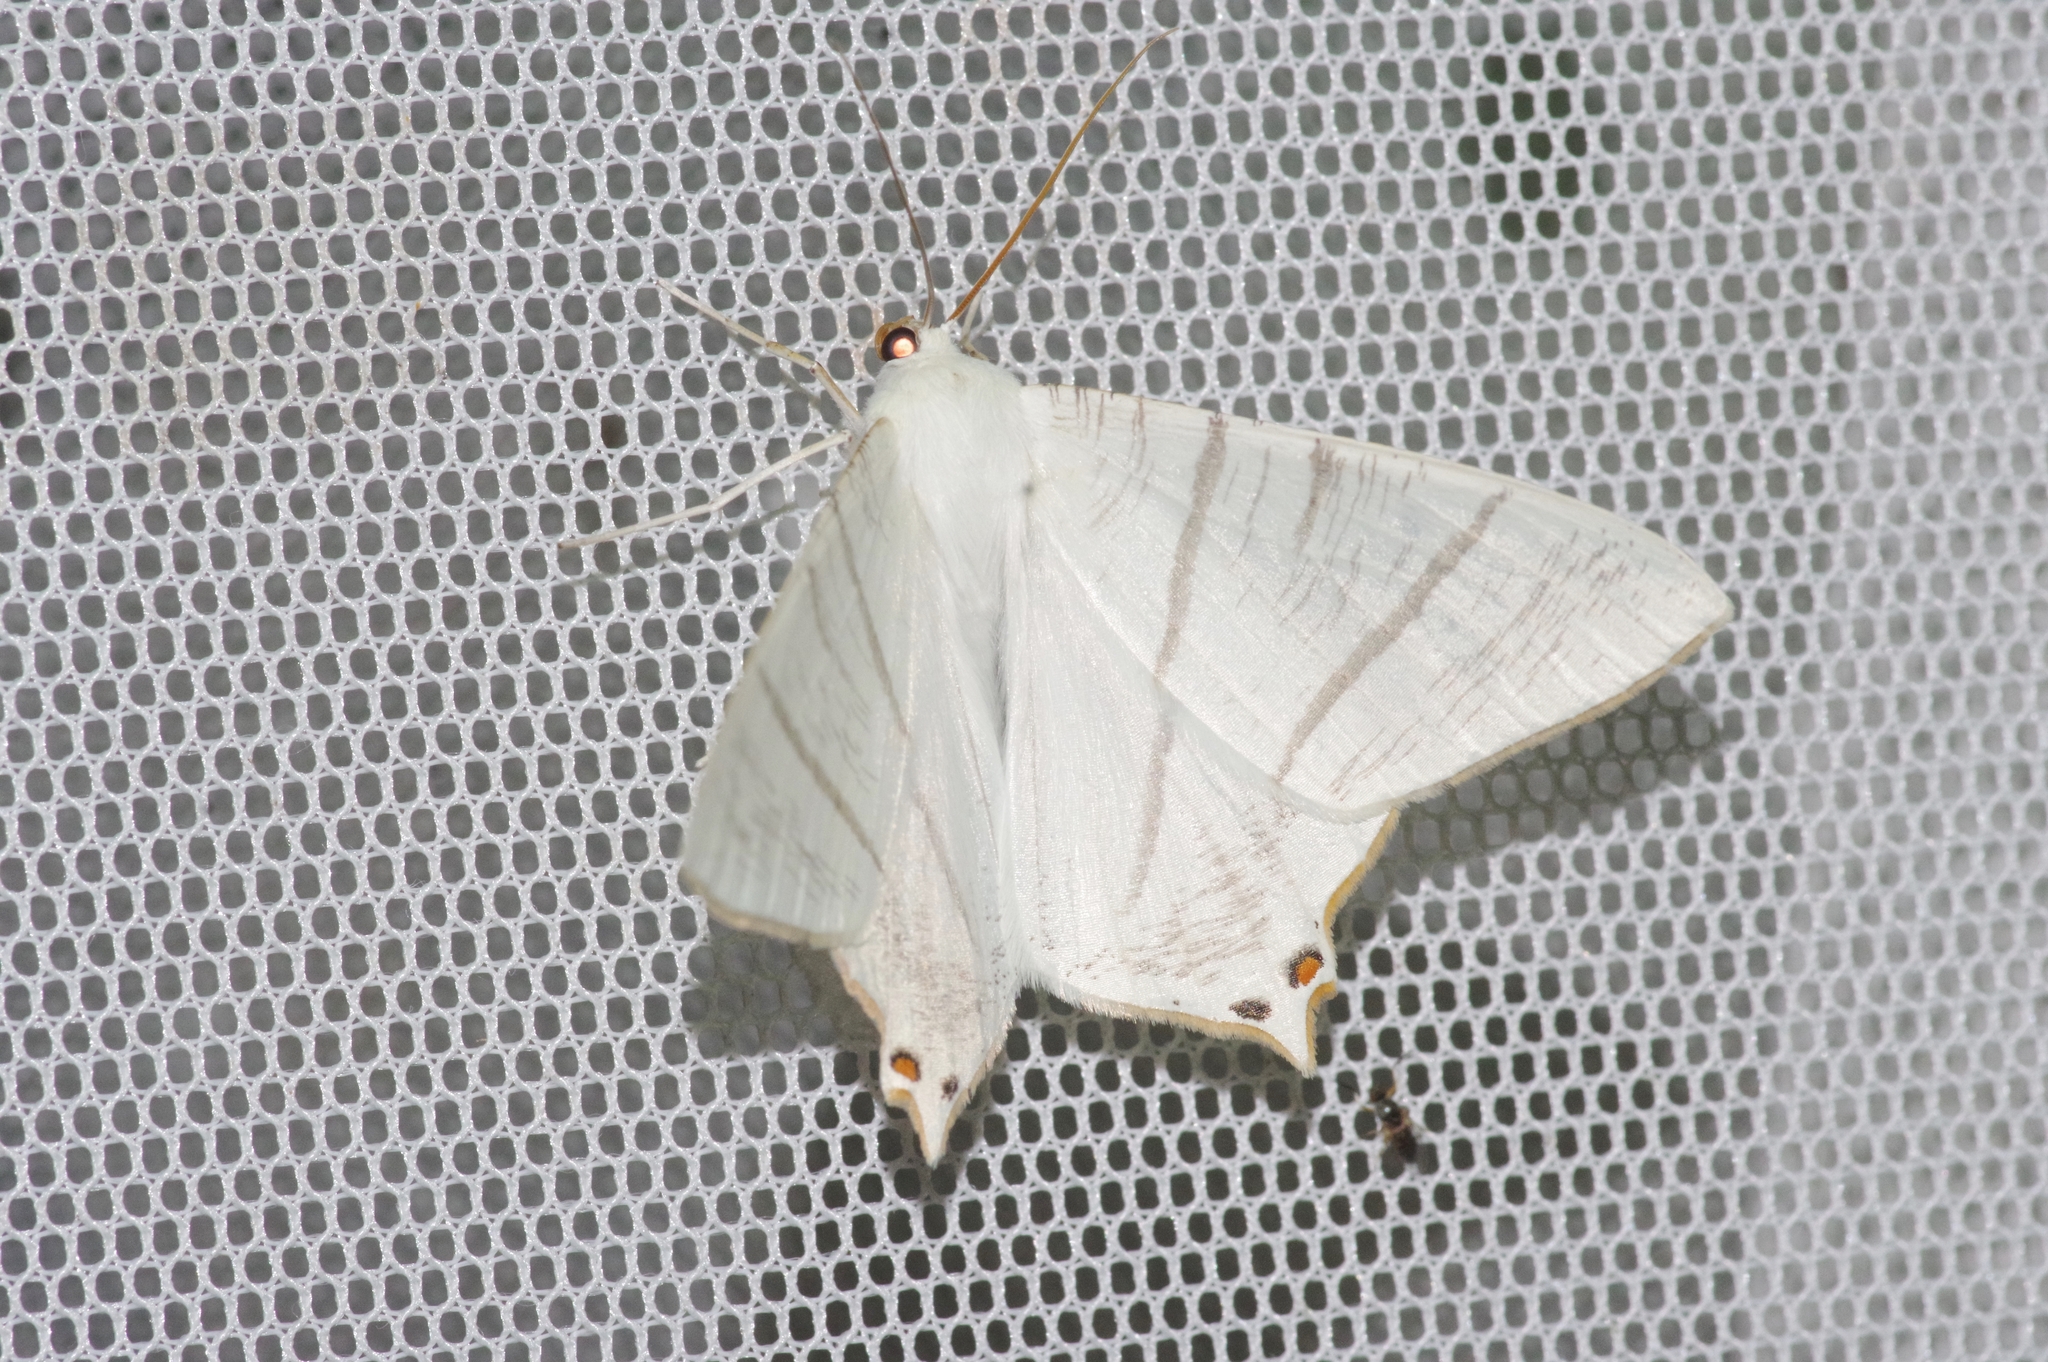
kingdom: Animalia
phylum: Arthropoda
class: Insecta
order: Lepidoptera
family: Geometridae
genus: Ourapteryx
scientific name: Ourapteryx japonica
